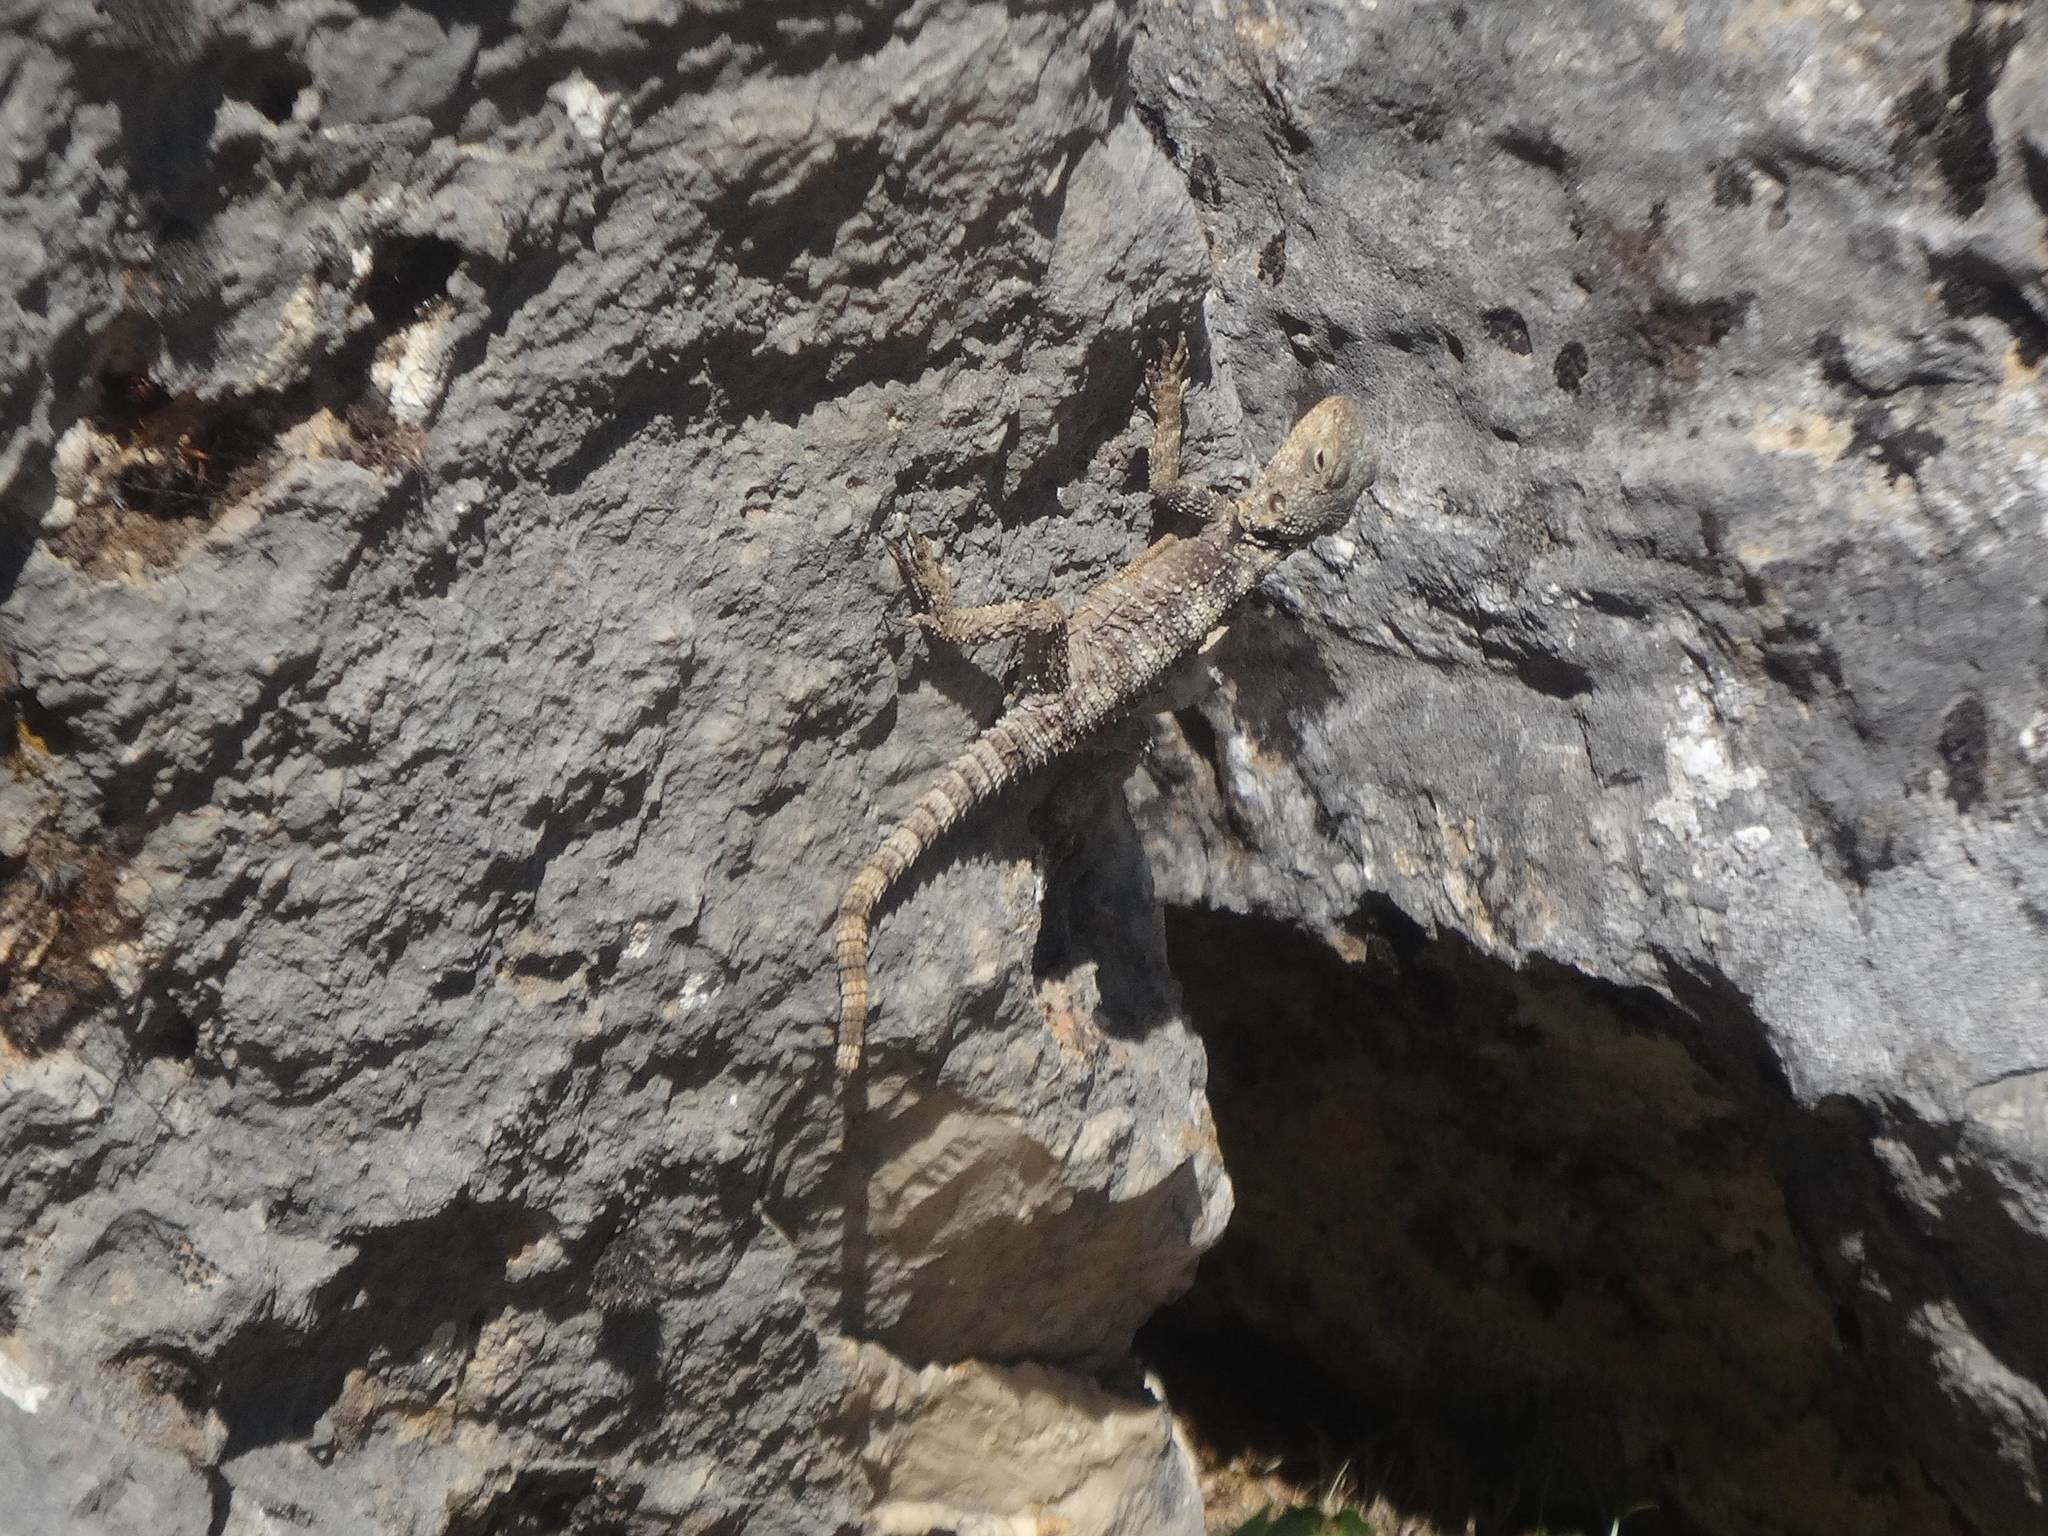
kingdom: Animalia
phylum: Chordata
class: Squamata
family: Agamidae
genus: Stellagama
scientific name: Stellagama stellio
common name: Starred agama
